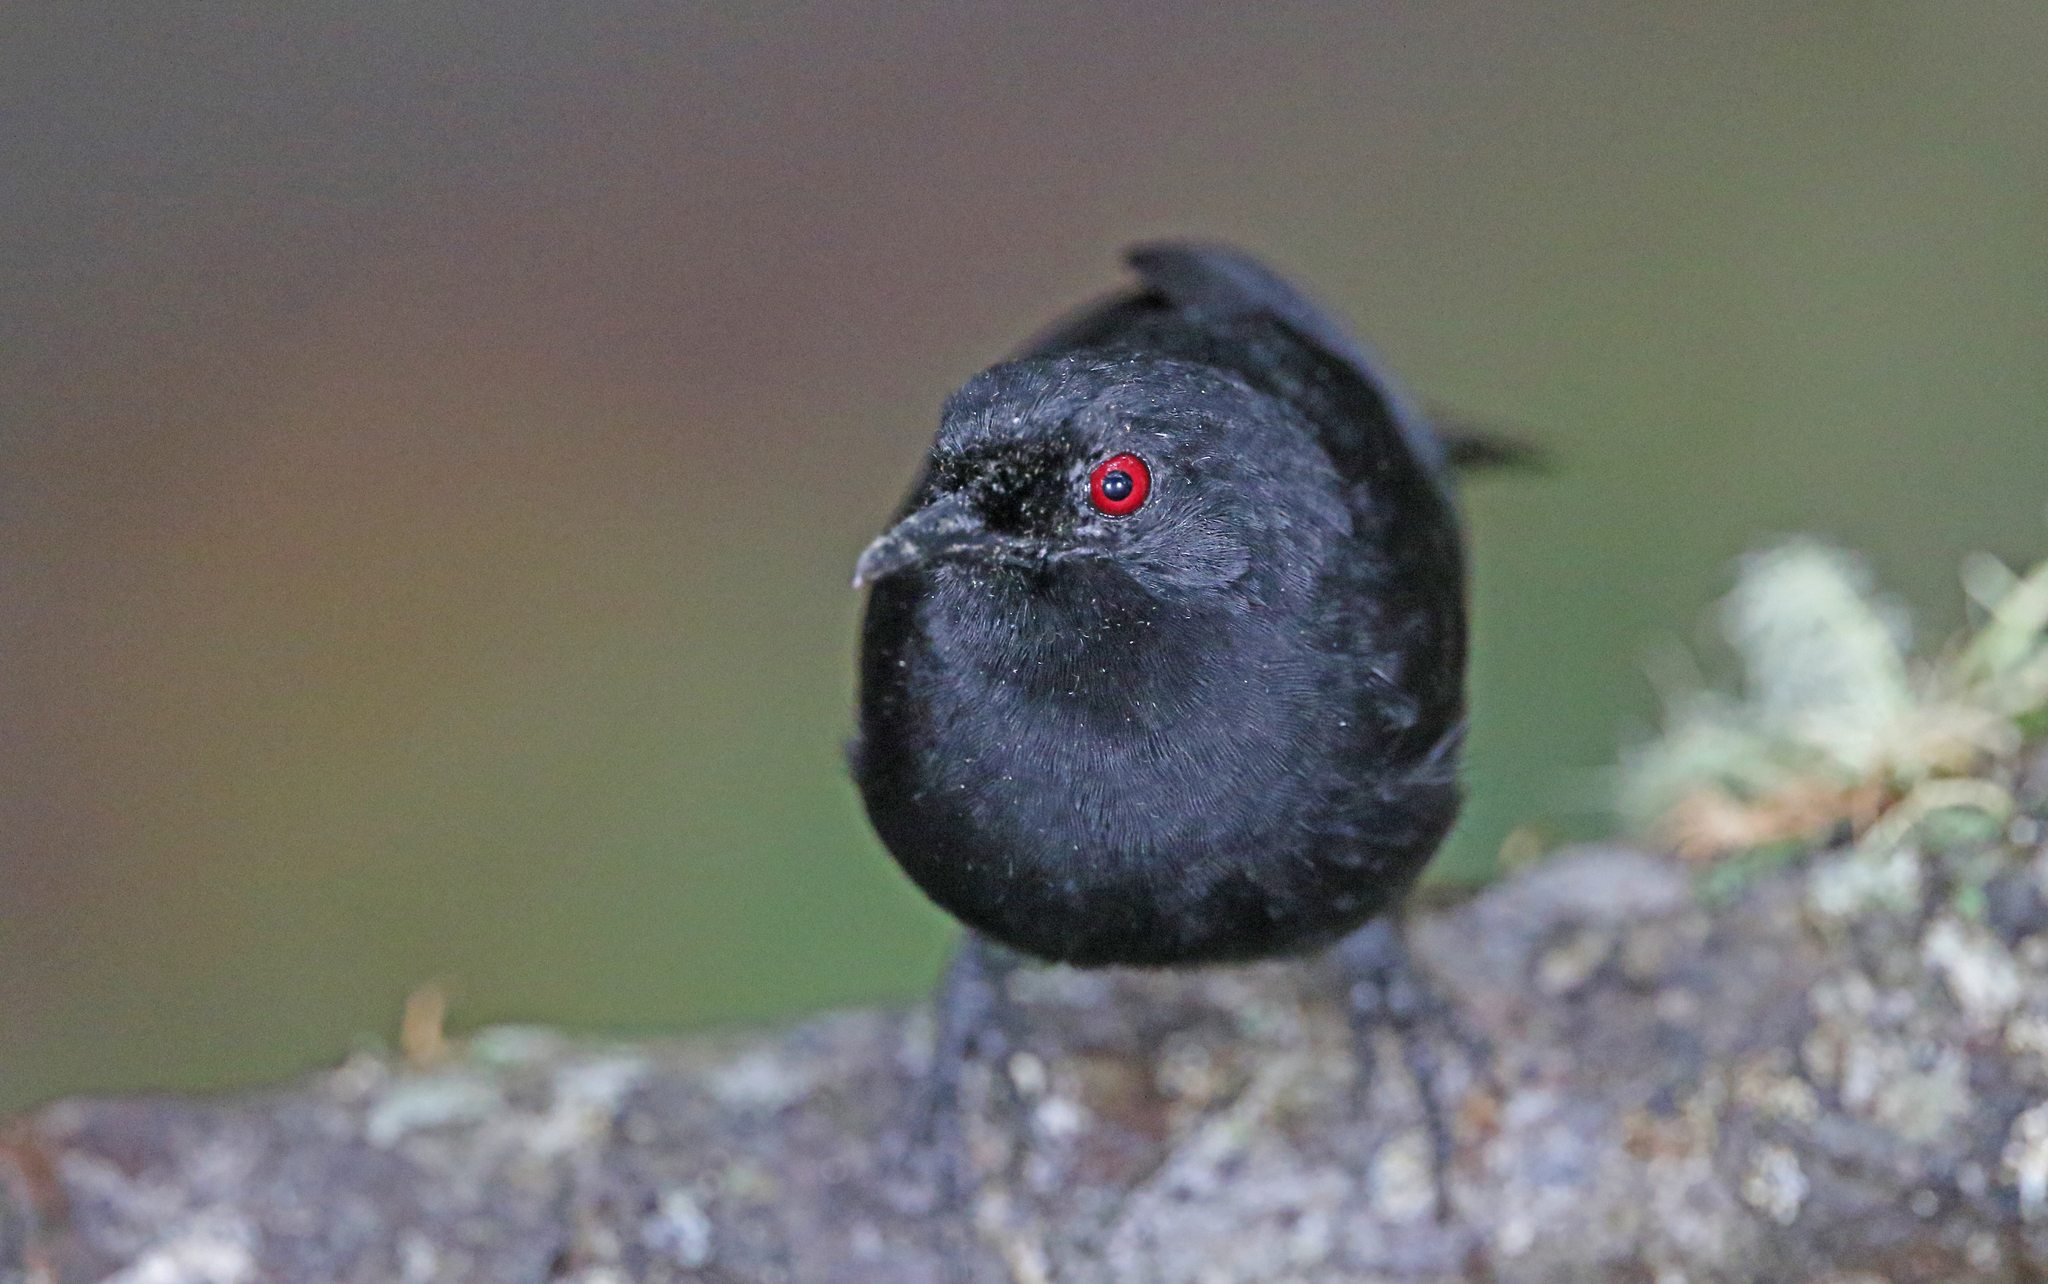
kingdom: Animalia
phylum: Chordata
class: Aves
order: Passeriformes
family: Thamnophilidae
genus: Pyriglena
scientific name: Pyriglena leuconota
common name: White-backed fire-eye
